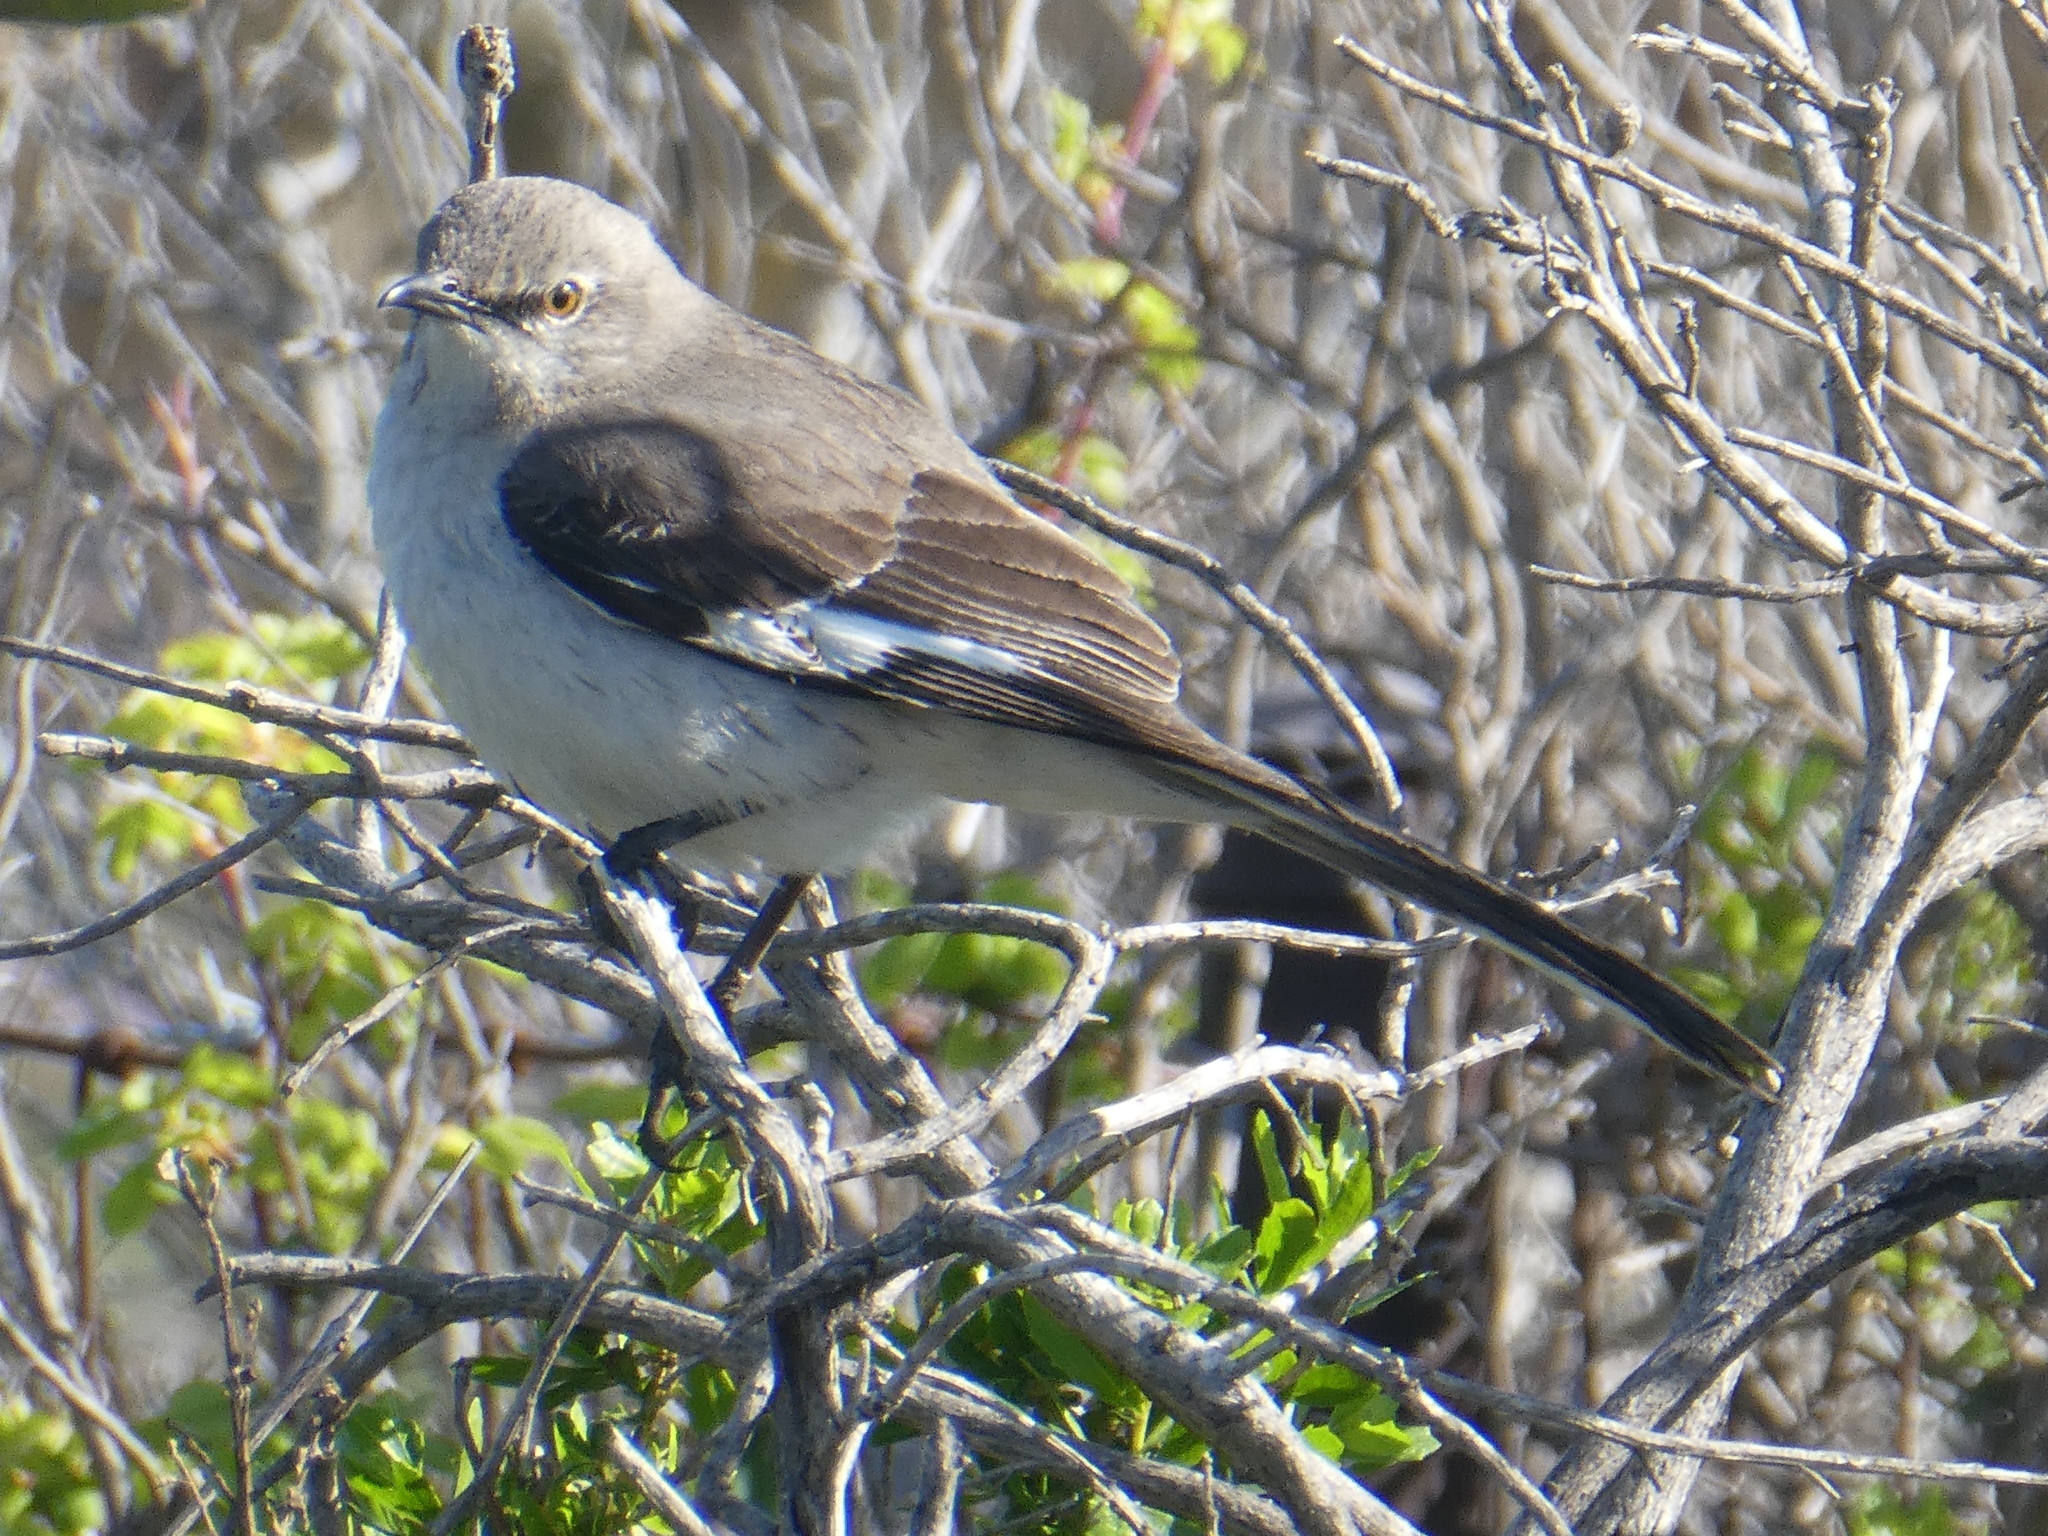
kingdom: Animalia
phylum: Chordata
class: Aves
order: Passeriformes
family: Mimidae
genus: Mimus
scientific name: Mimus polyglottos
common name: Northern mockingbird
